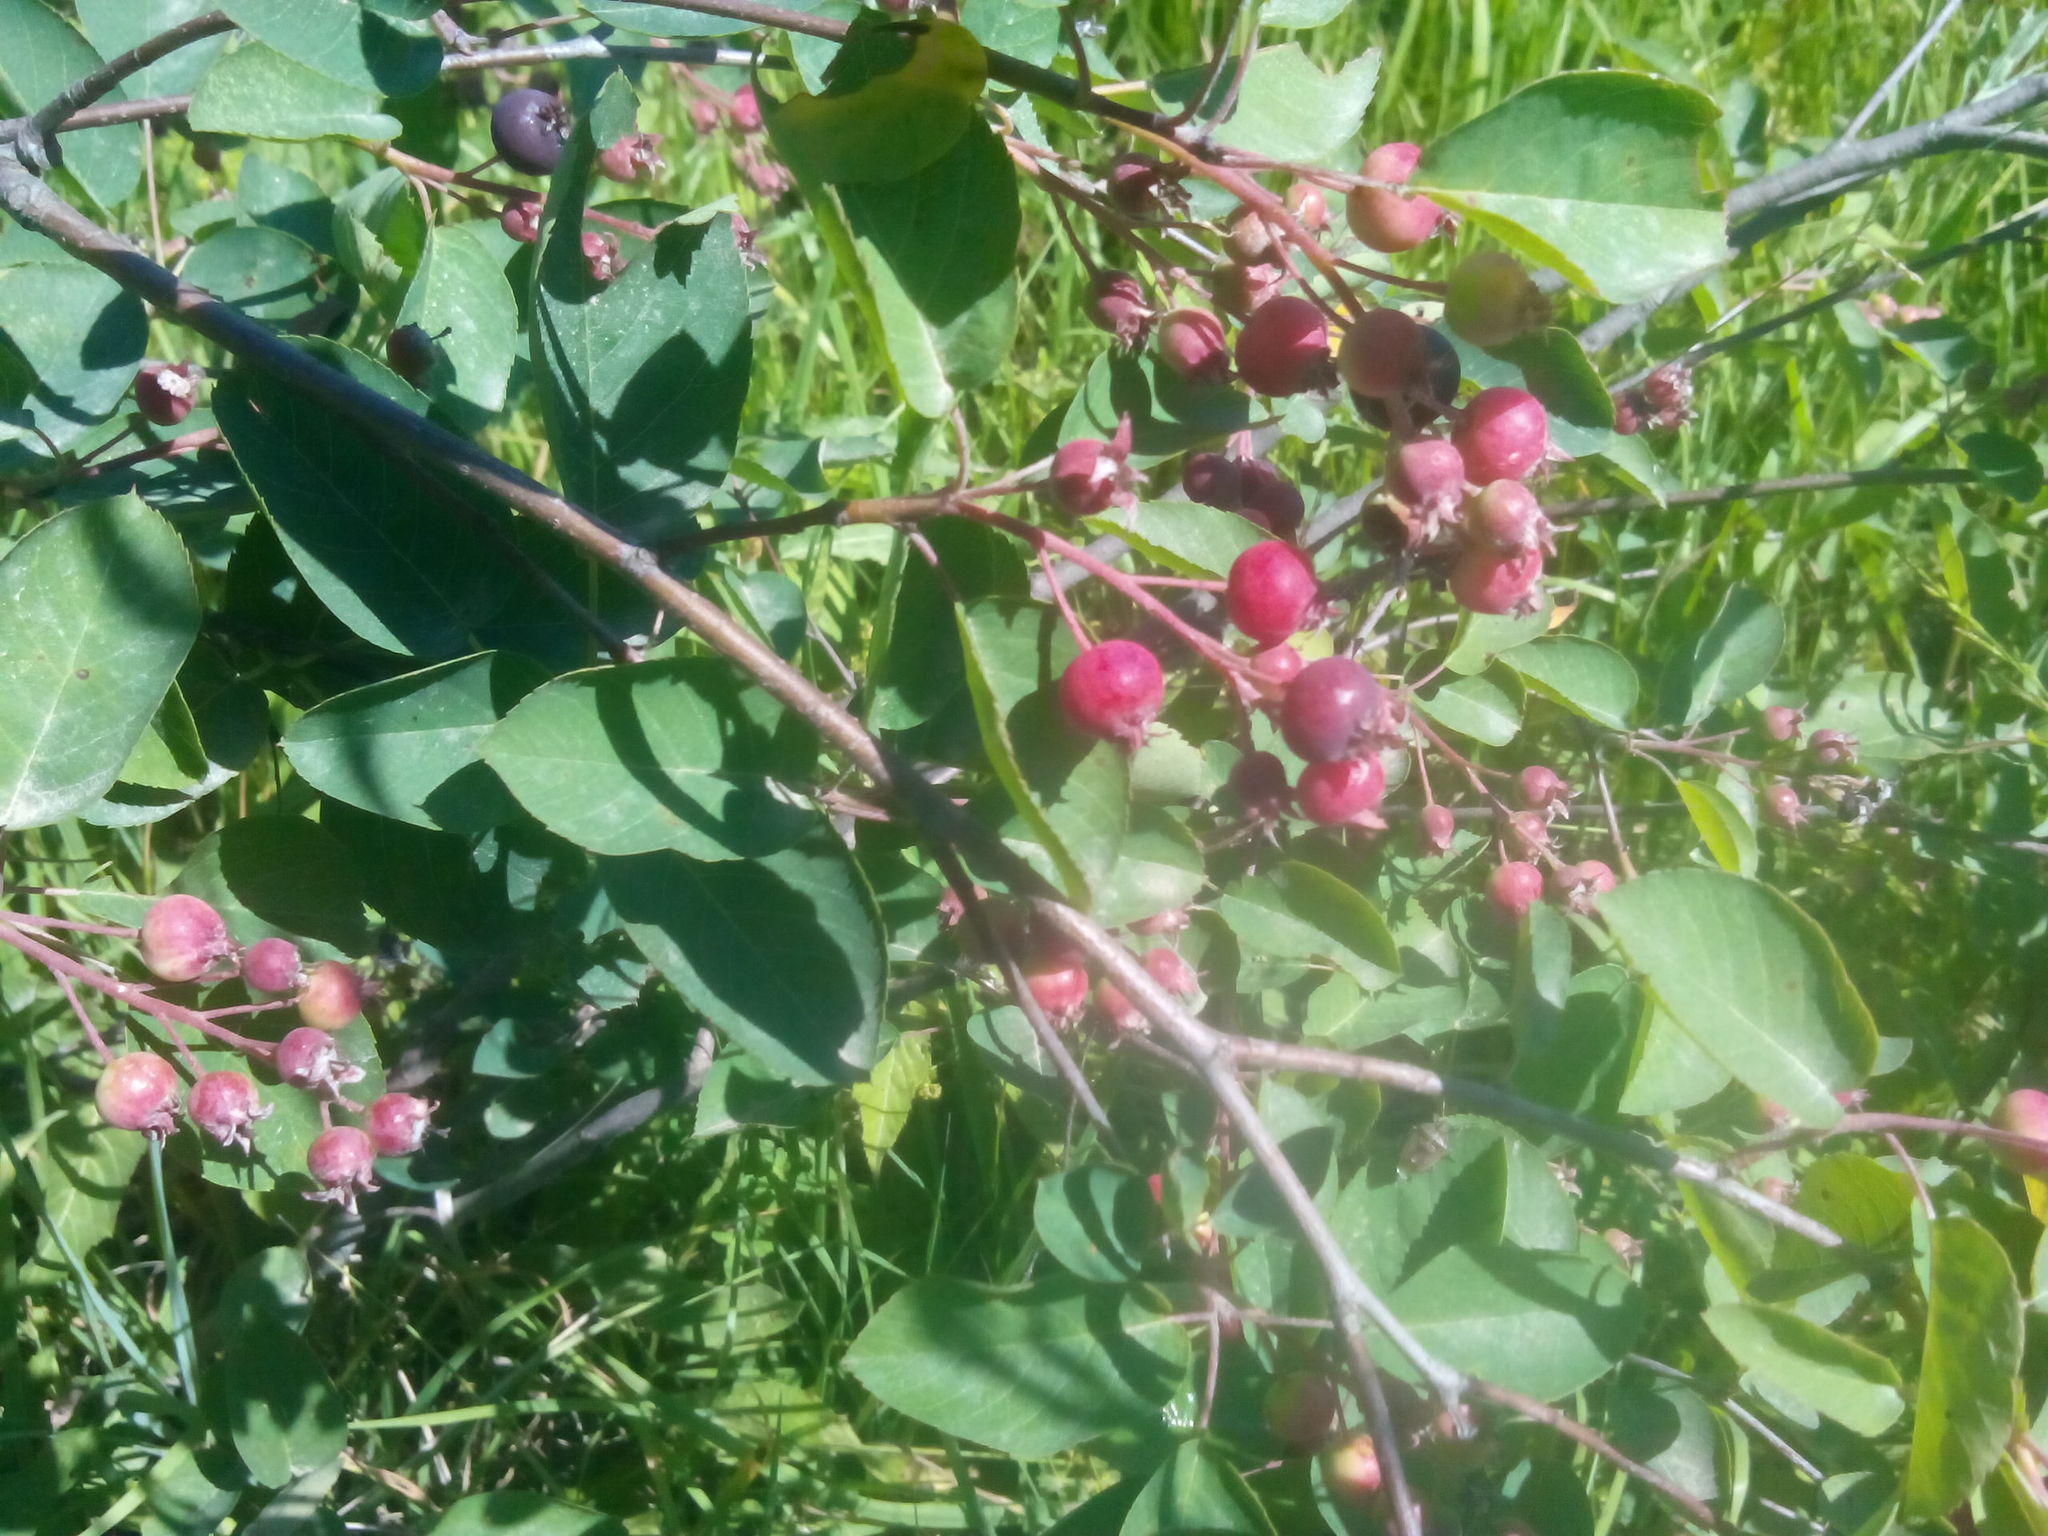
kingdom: Plantae
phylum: Tracheophyta
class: Magnoliopsida
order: Rosales
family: Rosaceae
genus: Amelanchier
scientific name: Amelanchier
